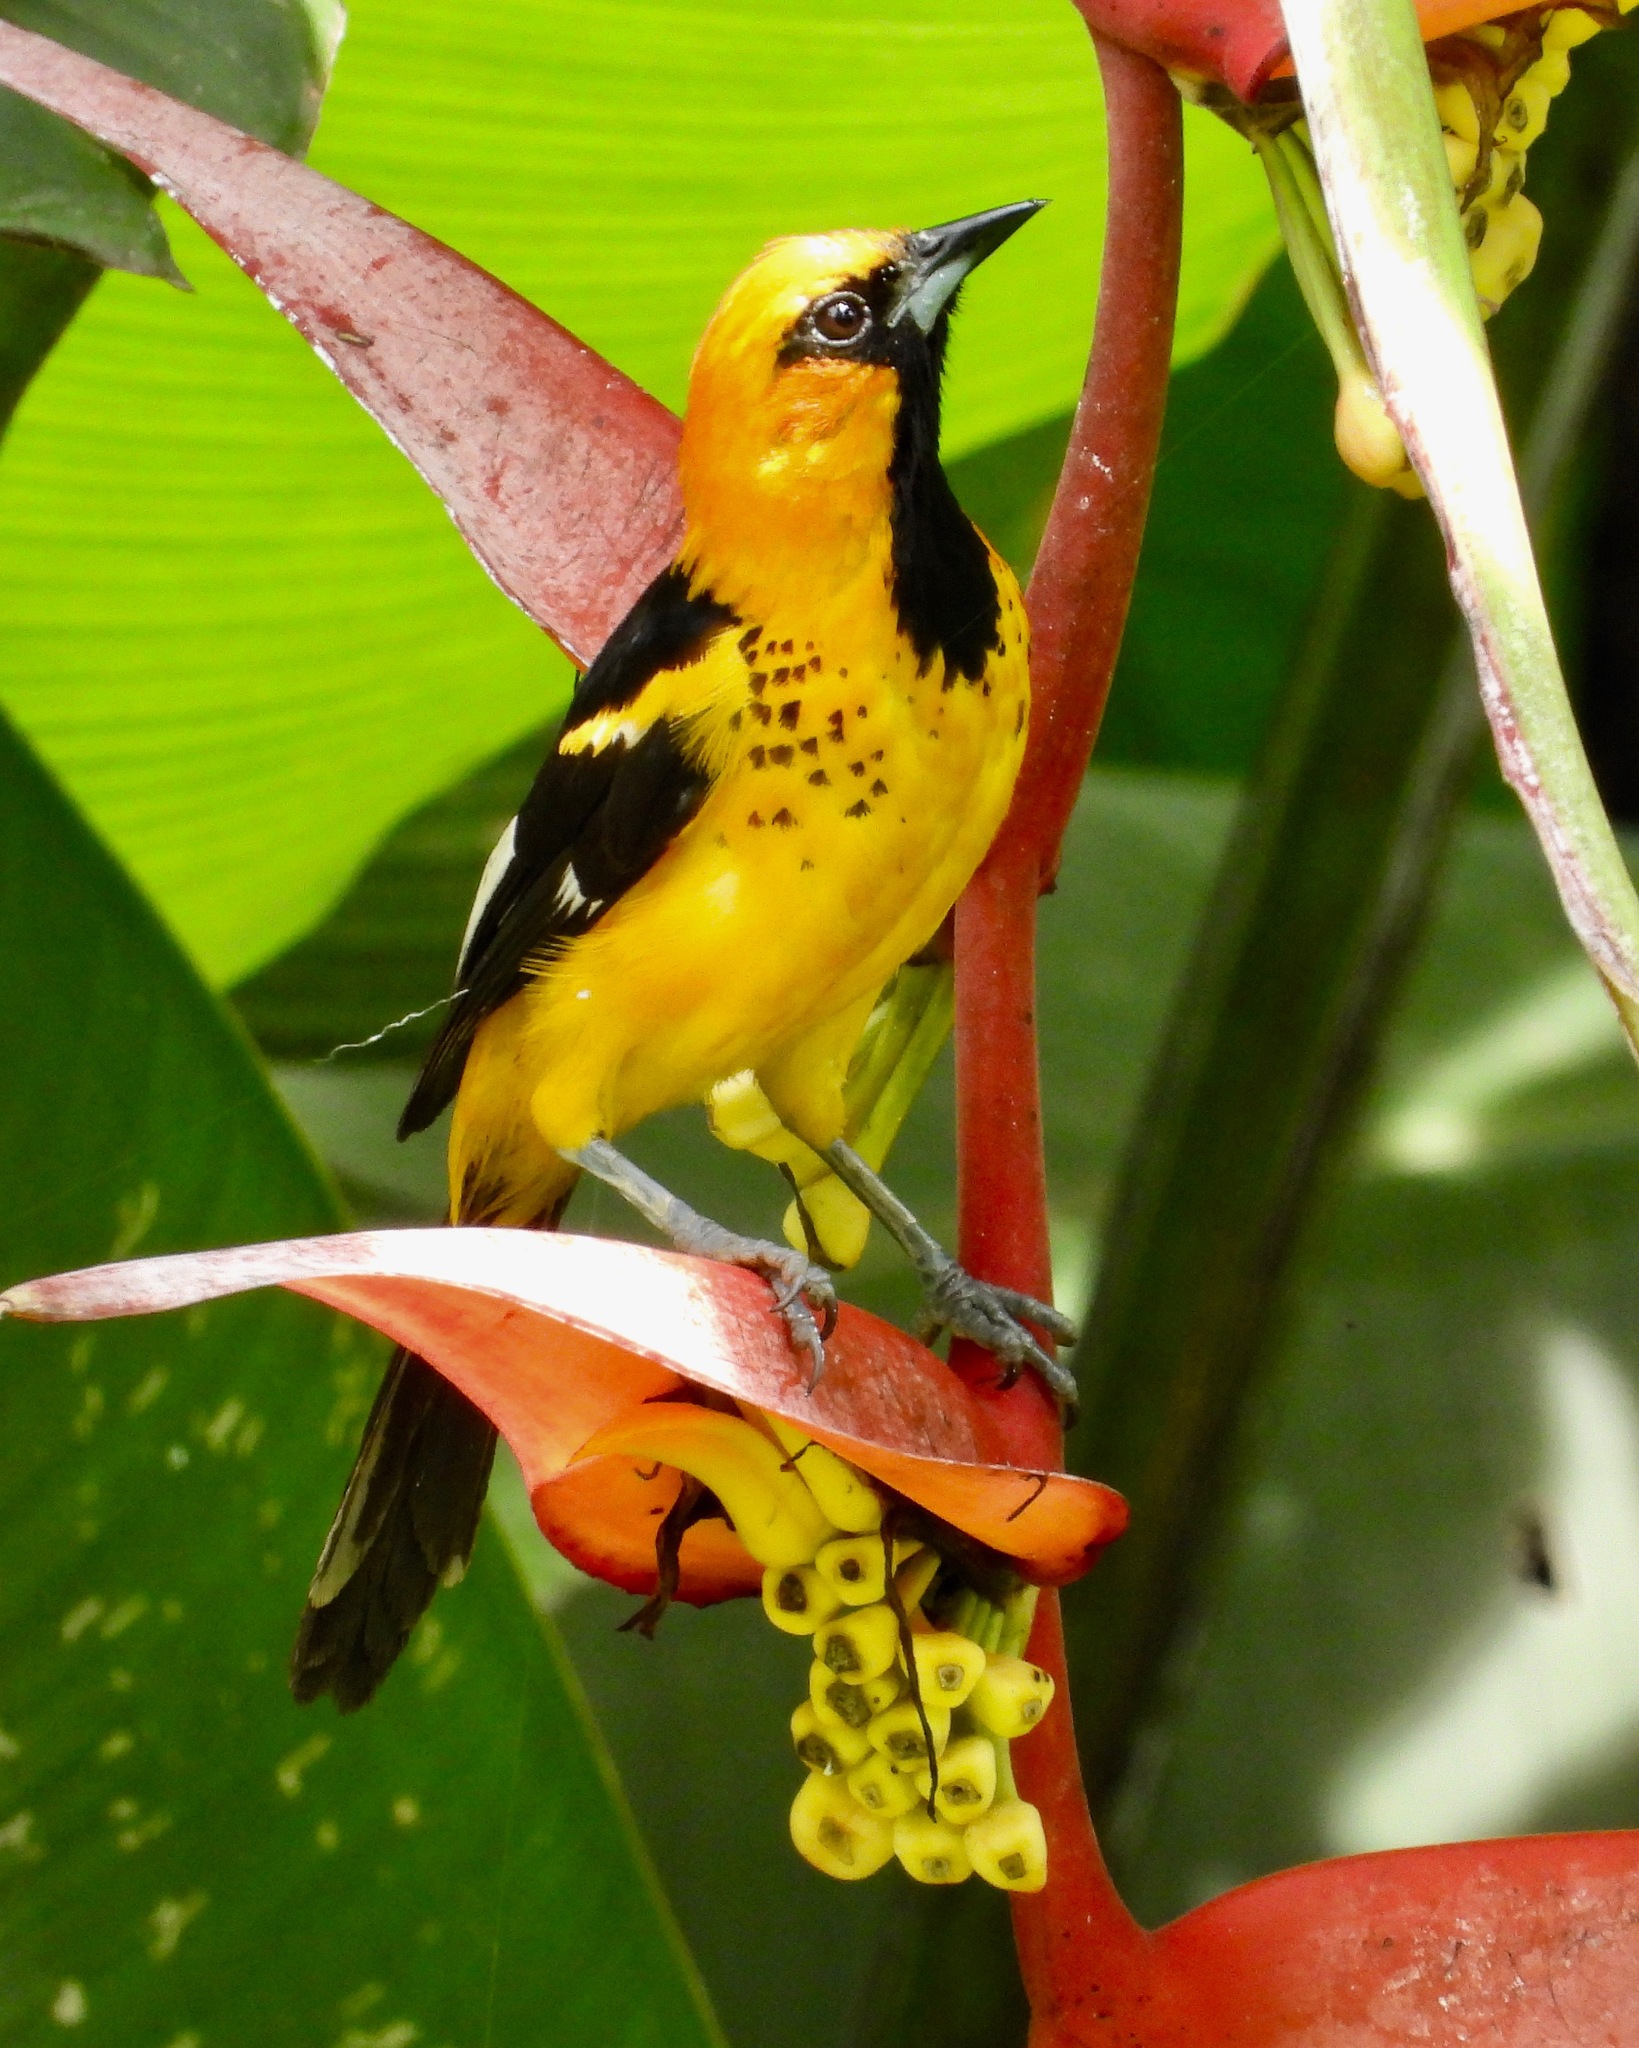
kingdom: Animalia
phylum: Chordata
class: Aves
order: Passeriformes
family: Icteridae
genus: Icterus
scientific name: Icterus pectoralis
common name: Spot-breasted oriole
